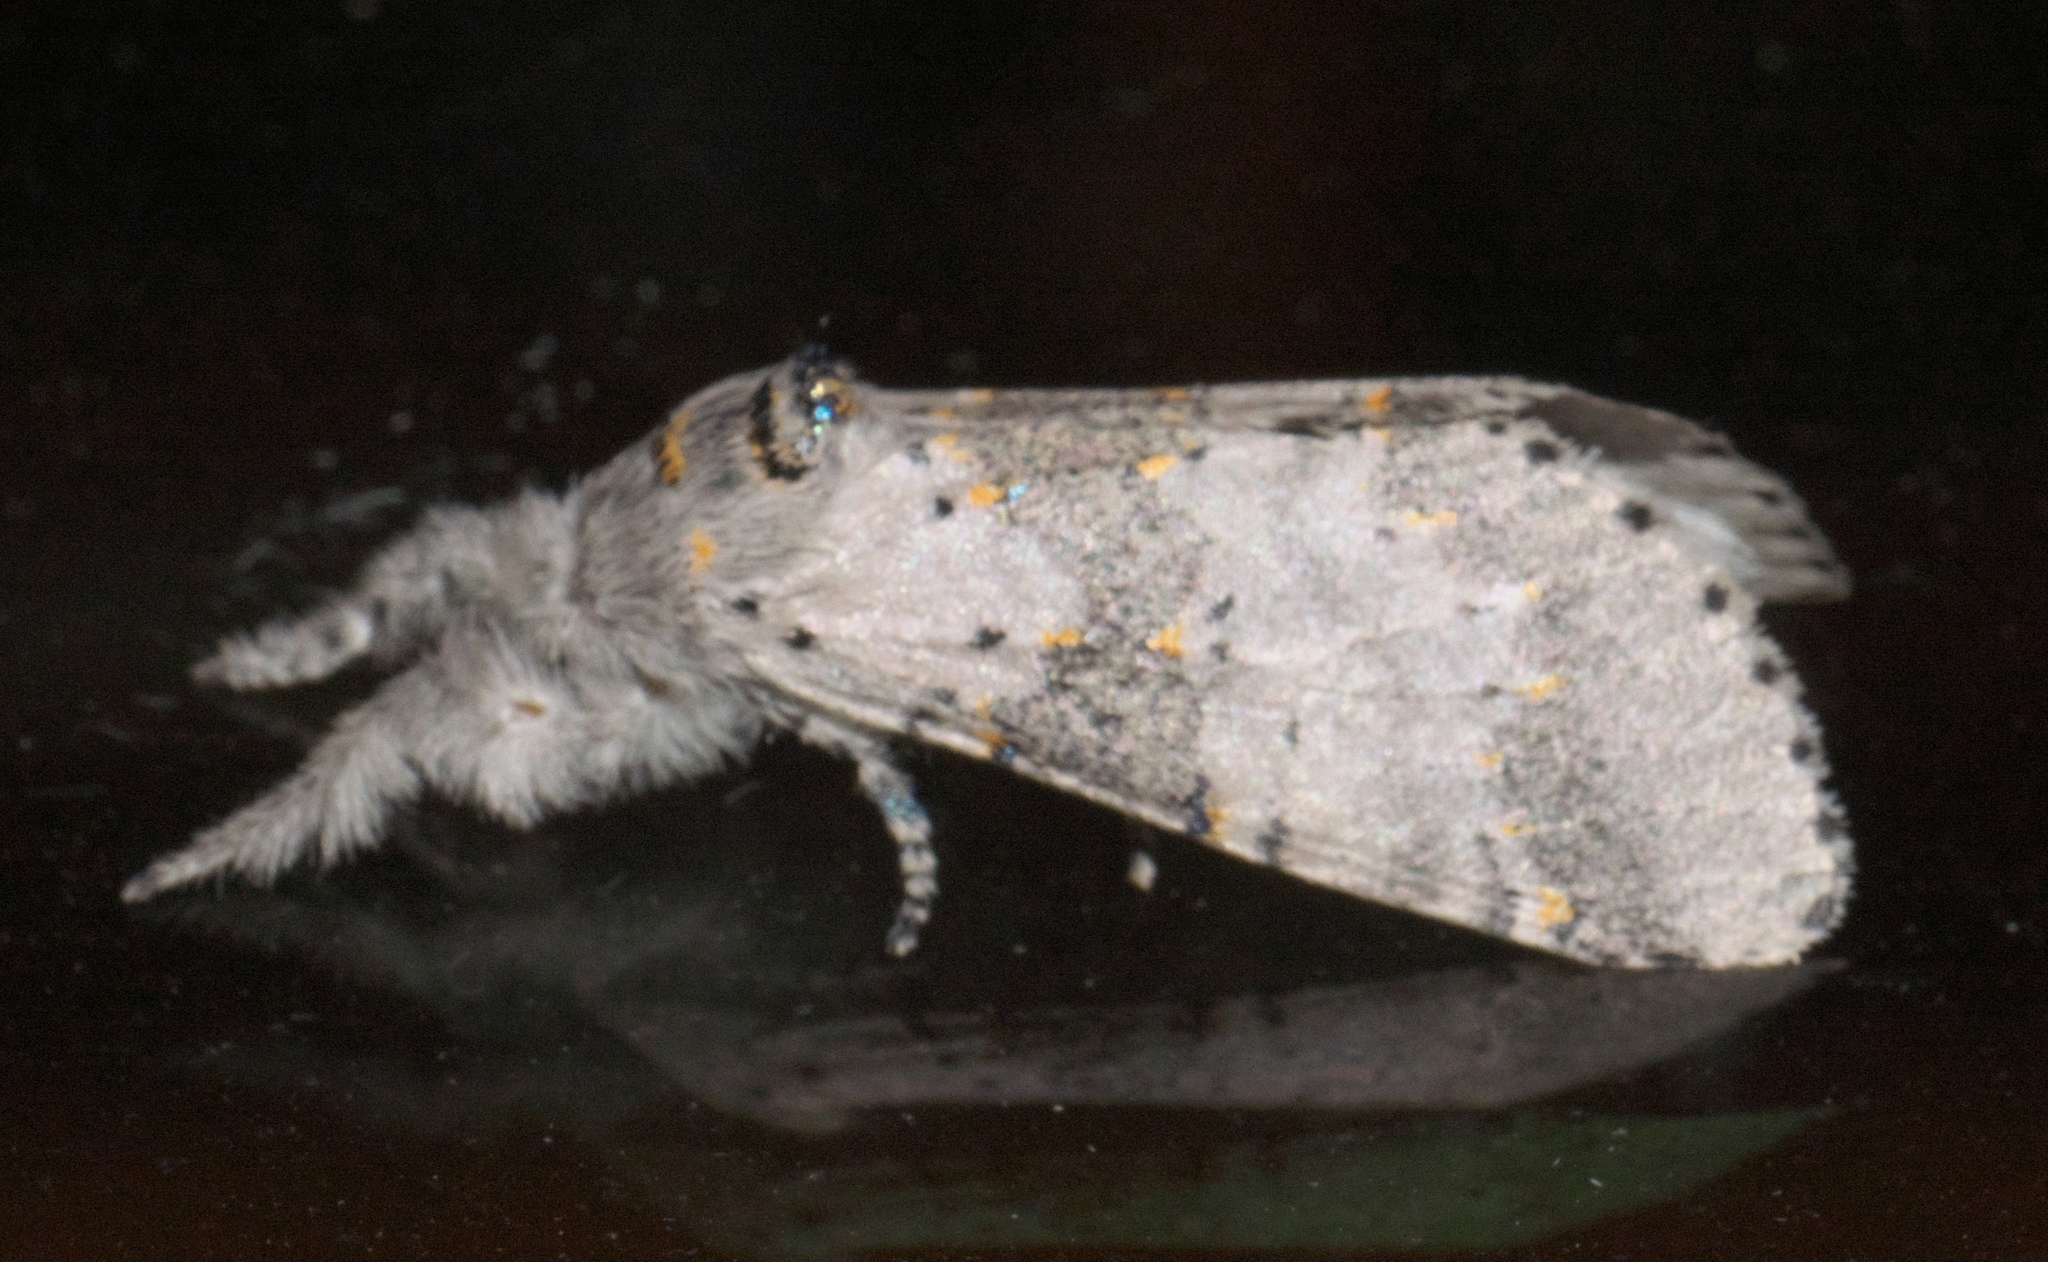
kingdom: Animalia
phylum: Arthropoda
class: Insecta
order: Lepidoptera
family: Notodontidae
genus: Furcula
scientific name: Furcula cinerea
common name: Gray furcula
